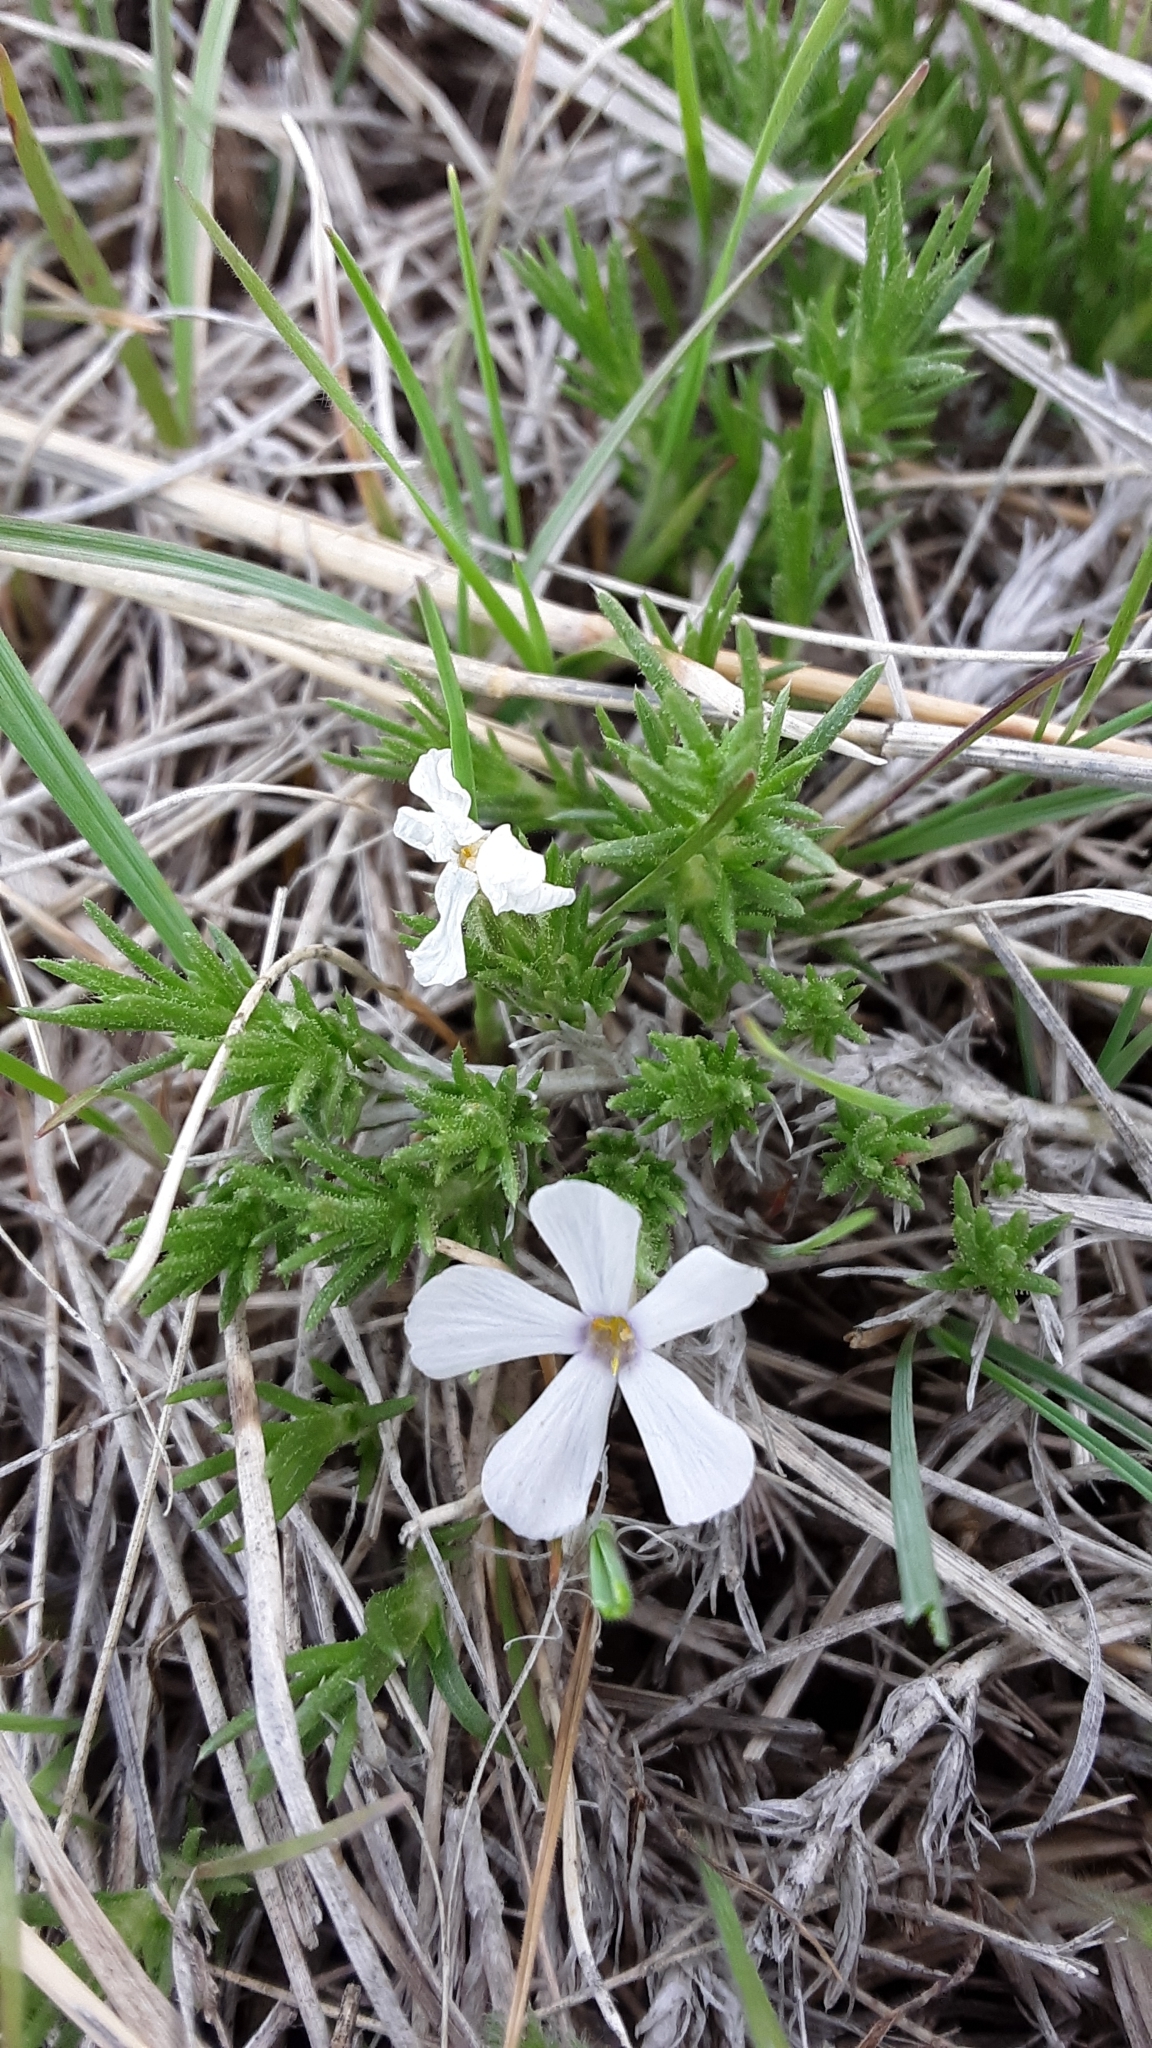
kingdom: Plantae
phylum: Tracheophyta
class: Magnoliopsida
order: Ericales
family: Polemoniaceae
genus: Phlox
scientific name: Phlox hoodii
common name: Moss phlox
